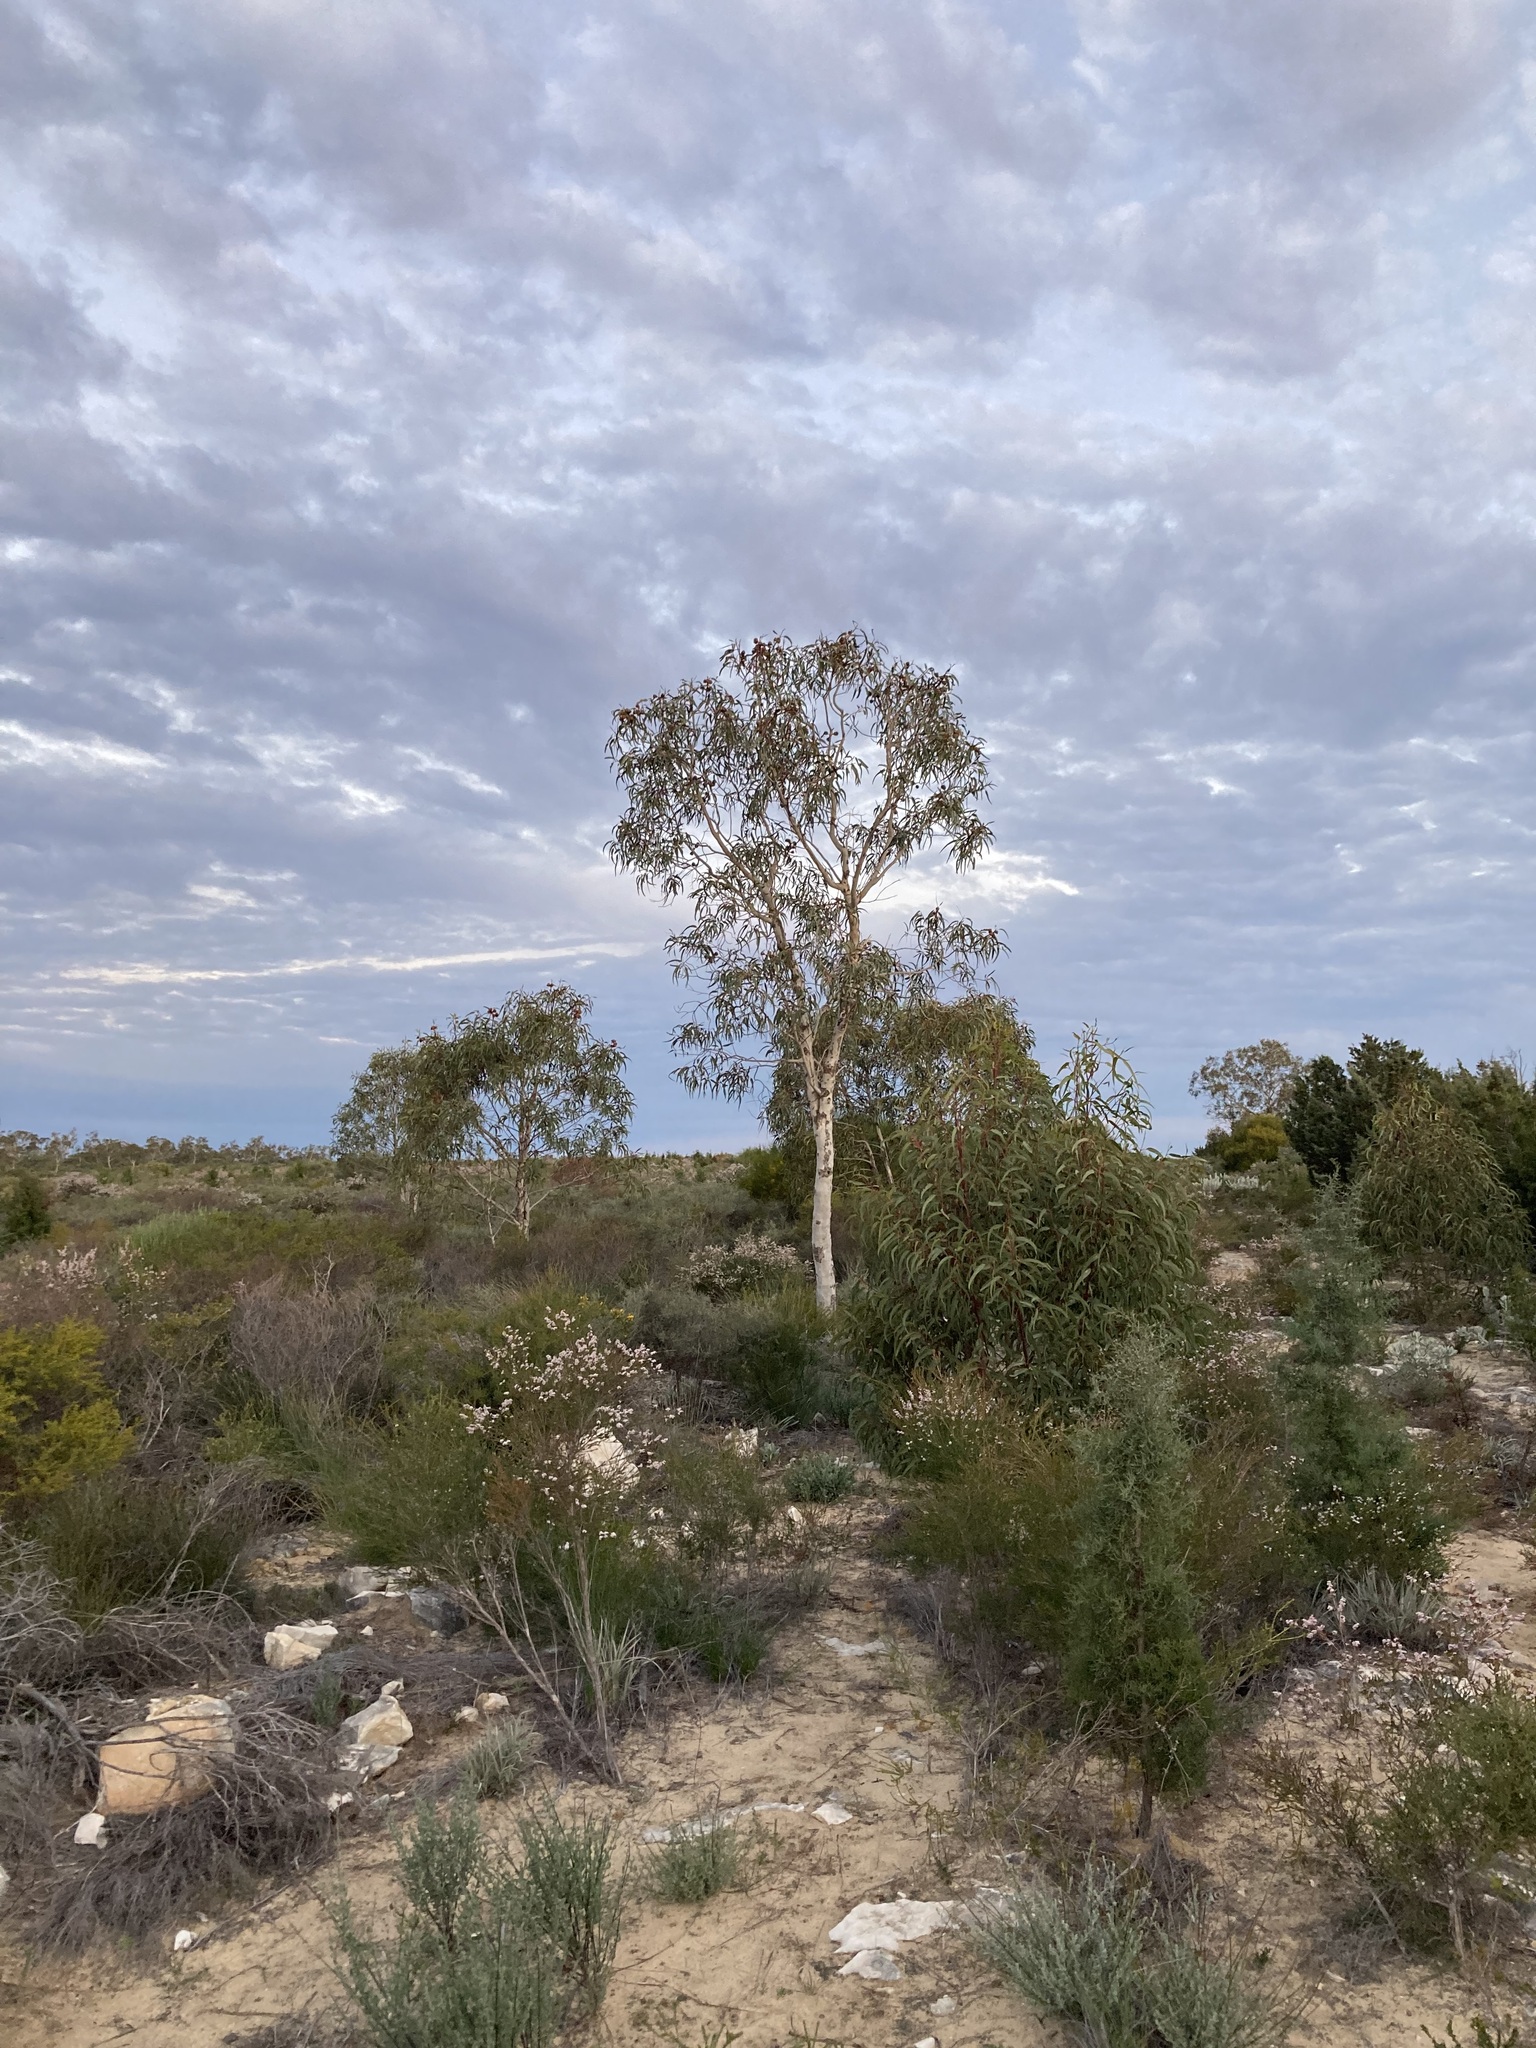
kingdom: Plantae
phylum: Tracheophyta
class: Magnoliopsida
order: Myrtales
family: Myrtaceae
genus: Eucalyptus
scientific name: Eucalyptus erythrocorys
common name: Bookara gum
